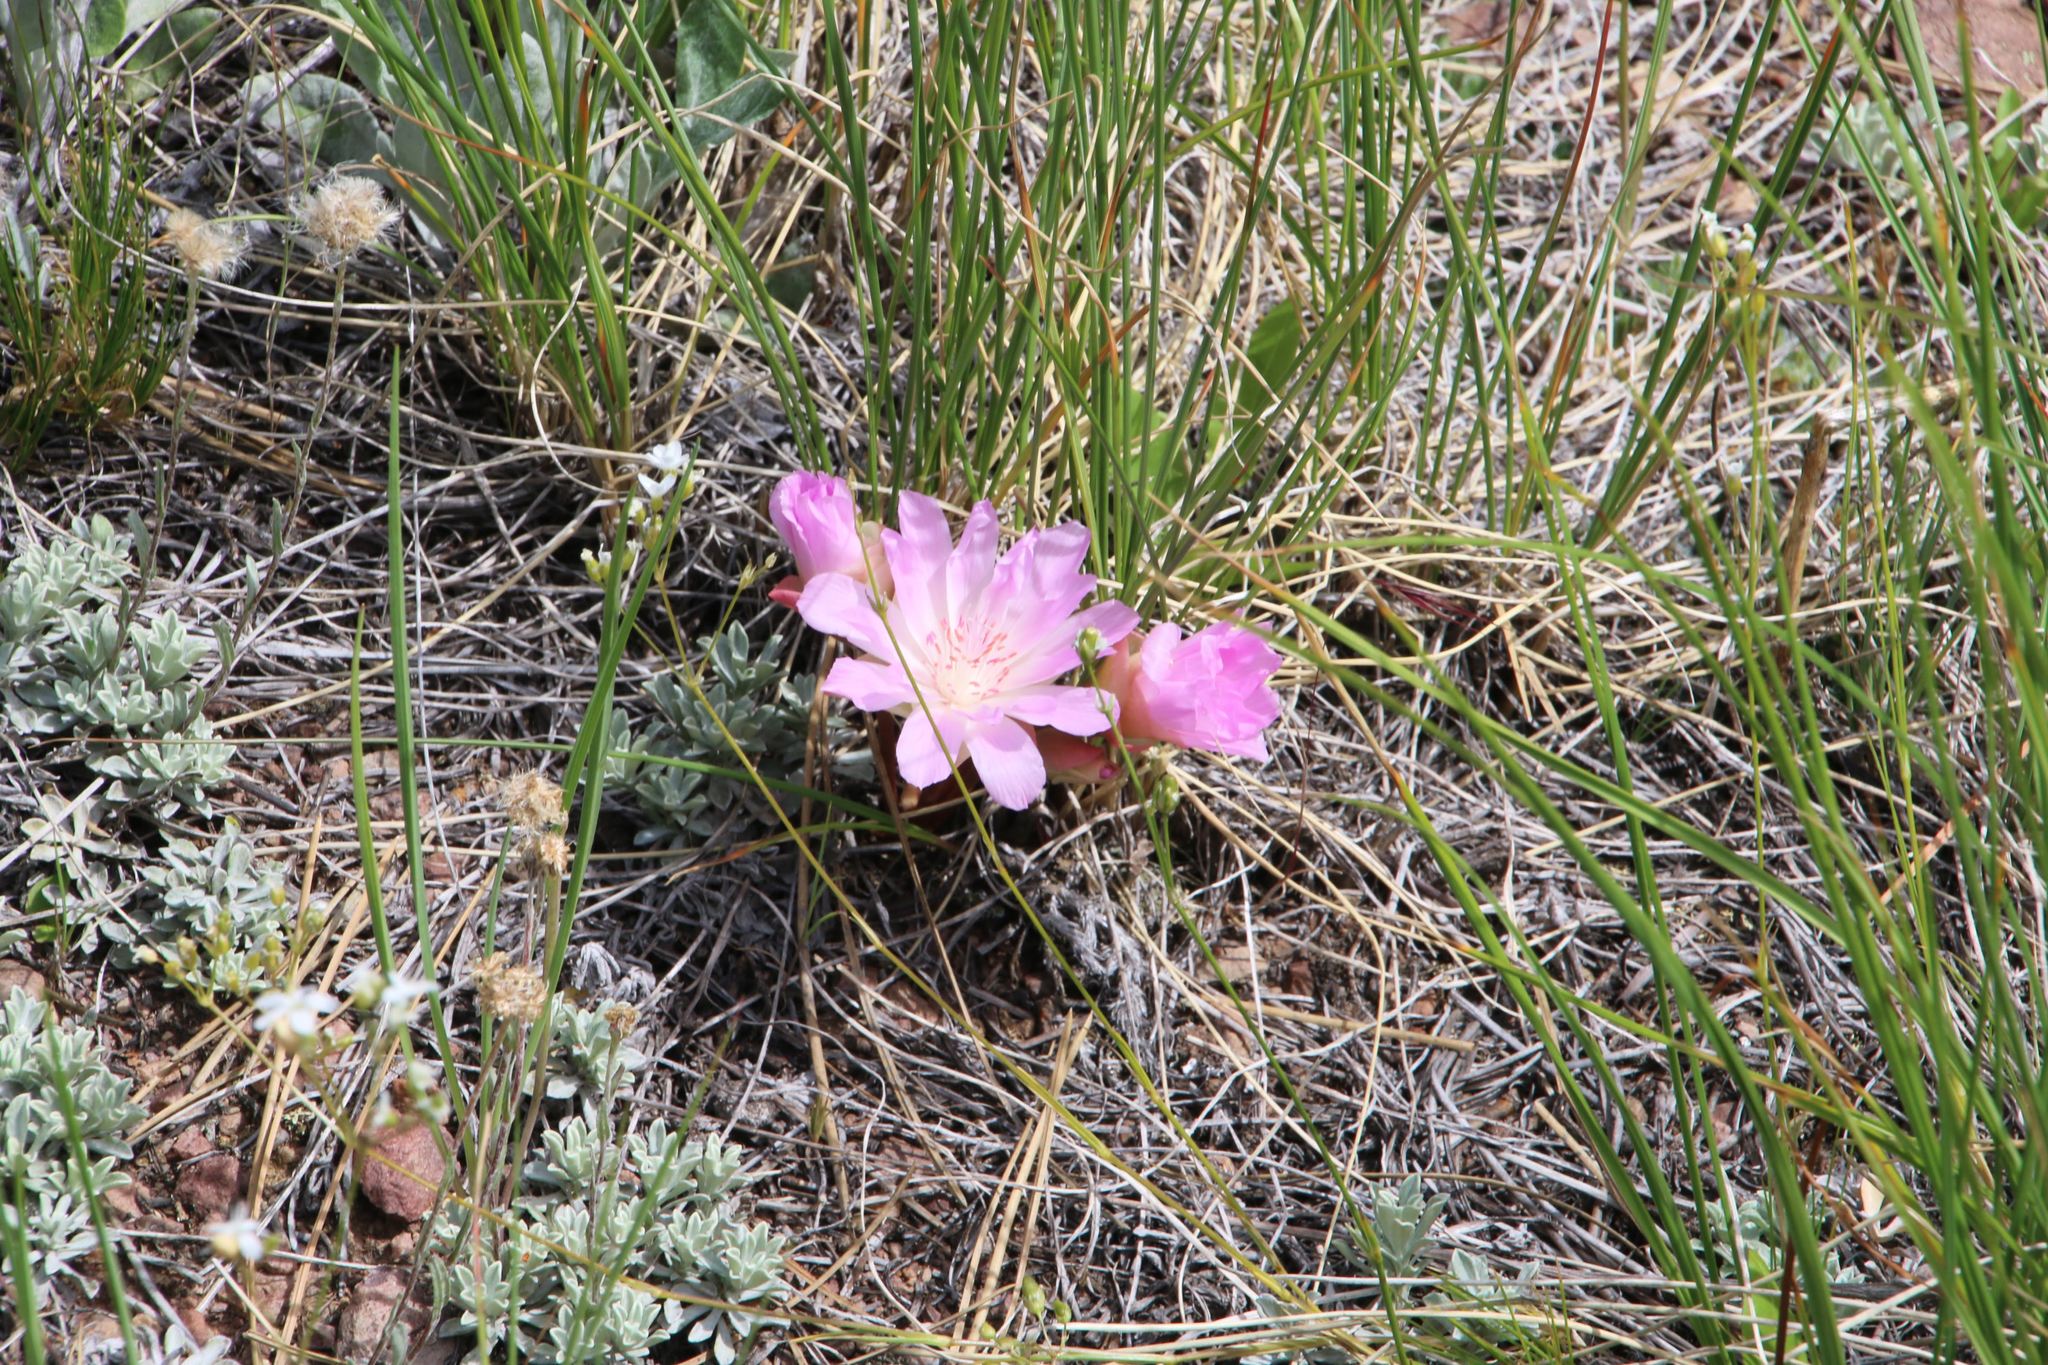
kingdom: Plantae
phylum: Tracheophyta
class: Magnoliopsida
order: Caryophyllales
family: Montiaceae
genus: Lewisia
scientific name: Lewisia rediviva
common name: Bitter-root
